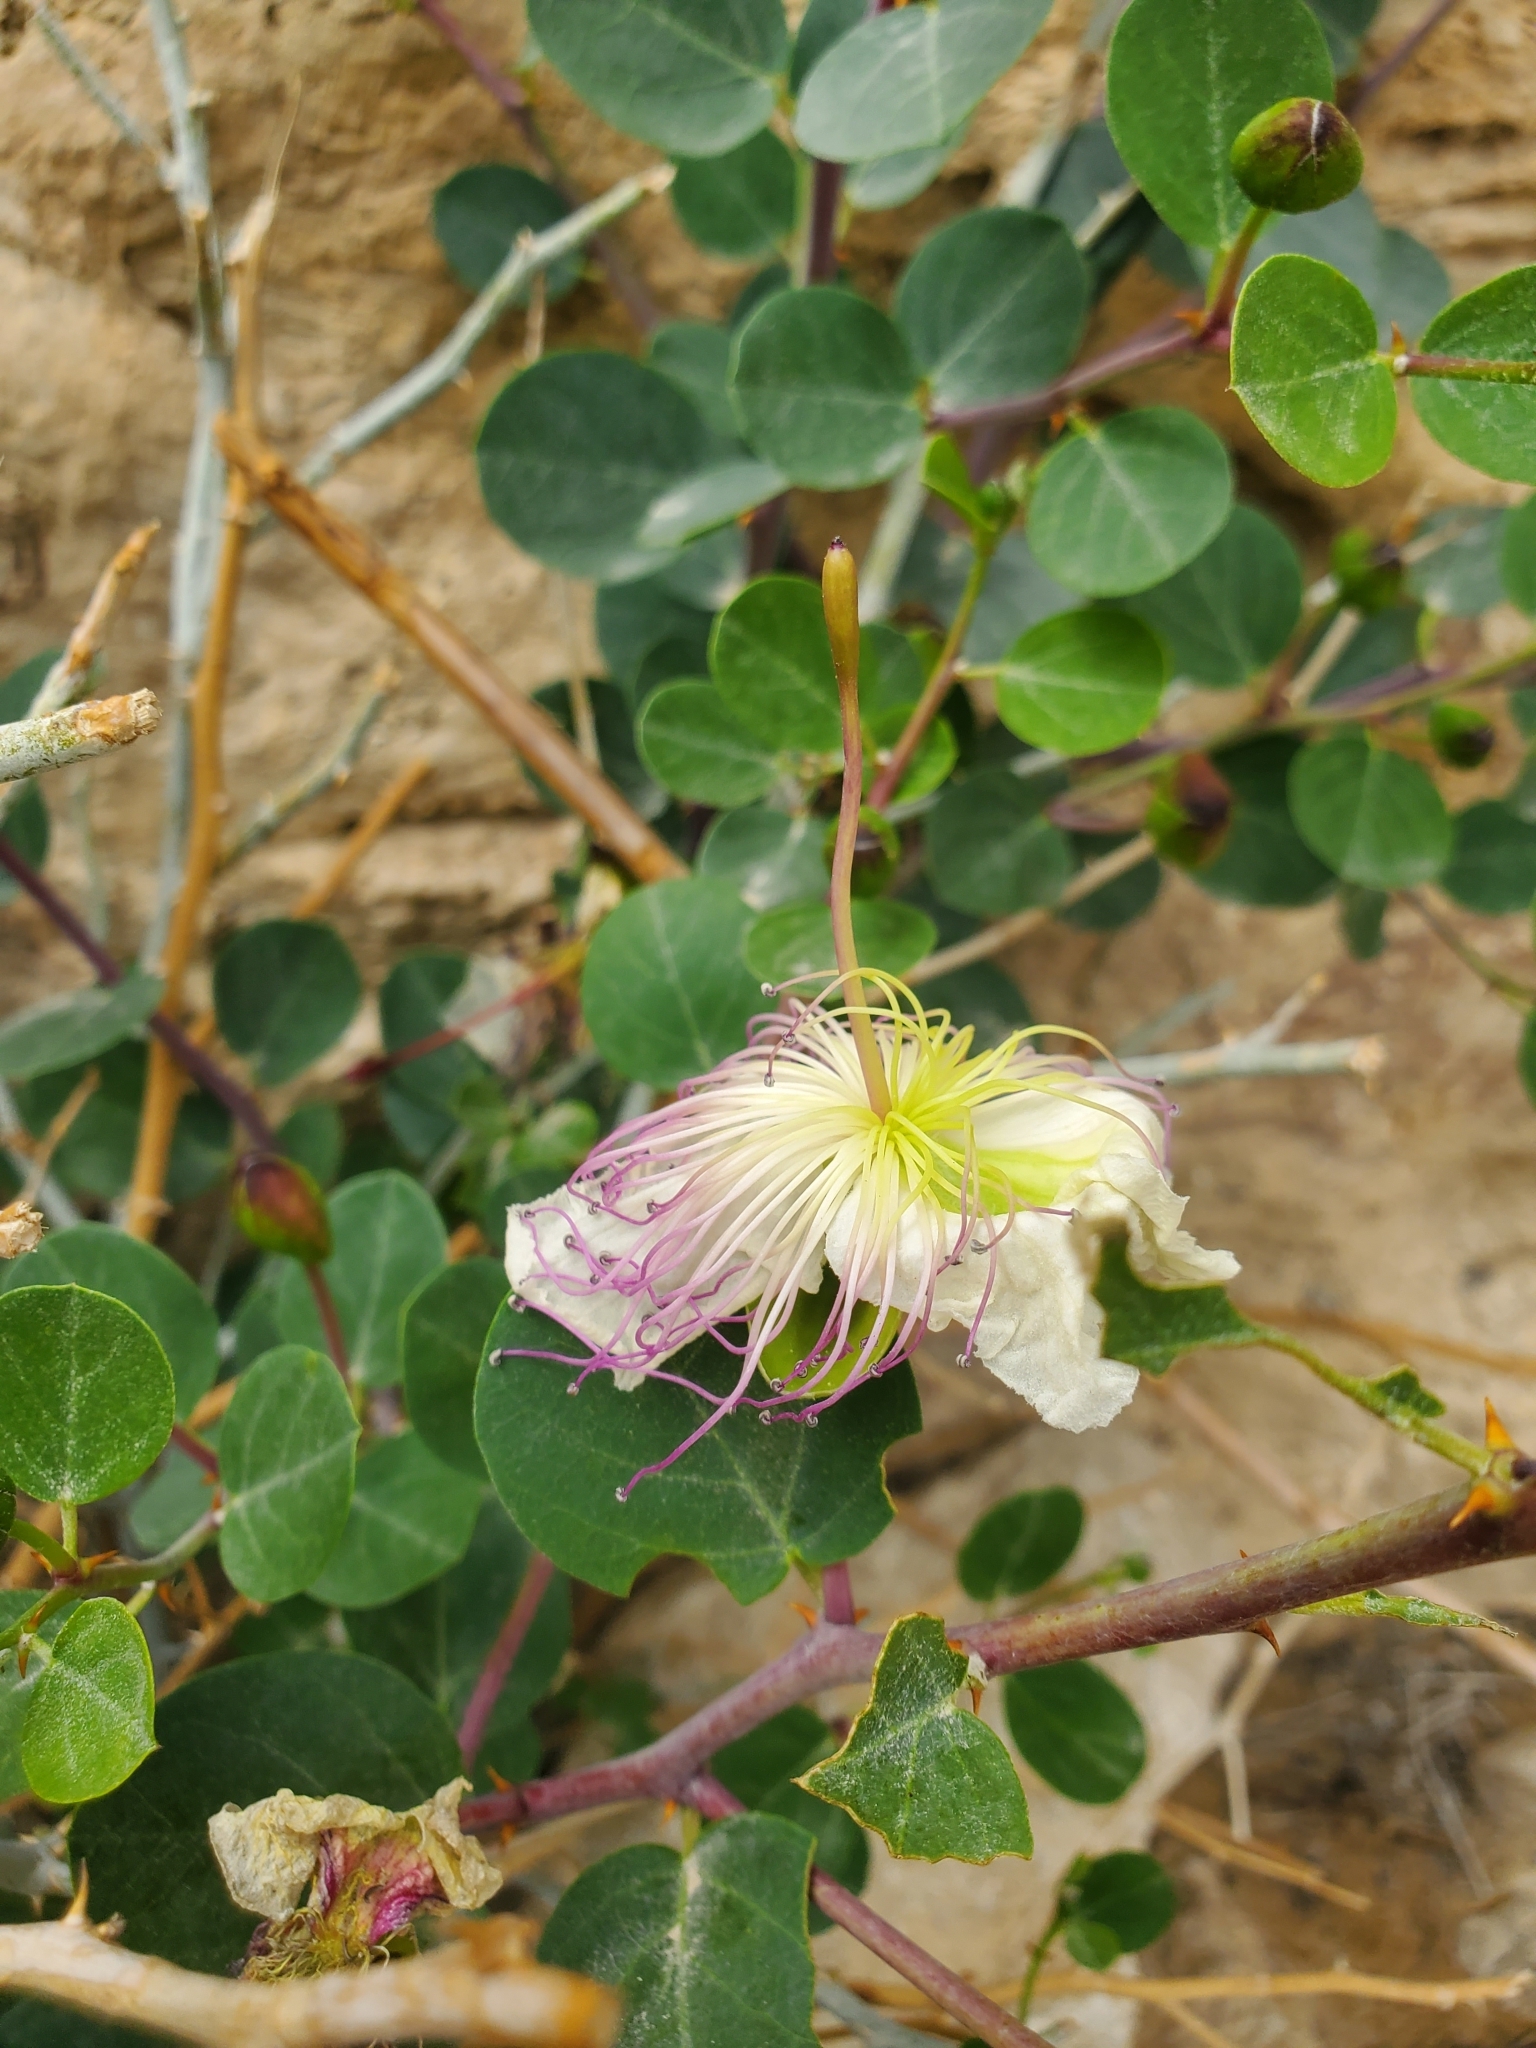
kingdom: Plantae
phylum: Tracheophyta
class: Magnoliopsida
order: Brassicales
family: Capparaceae
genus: Capparis
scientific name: Capparis spinosa
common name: Caper
